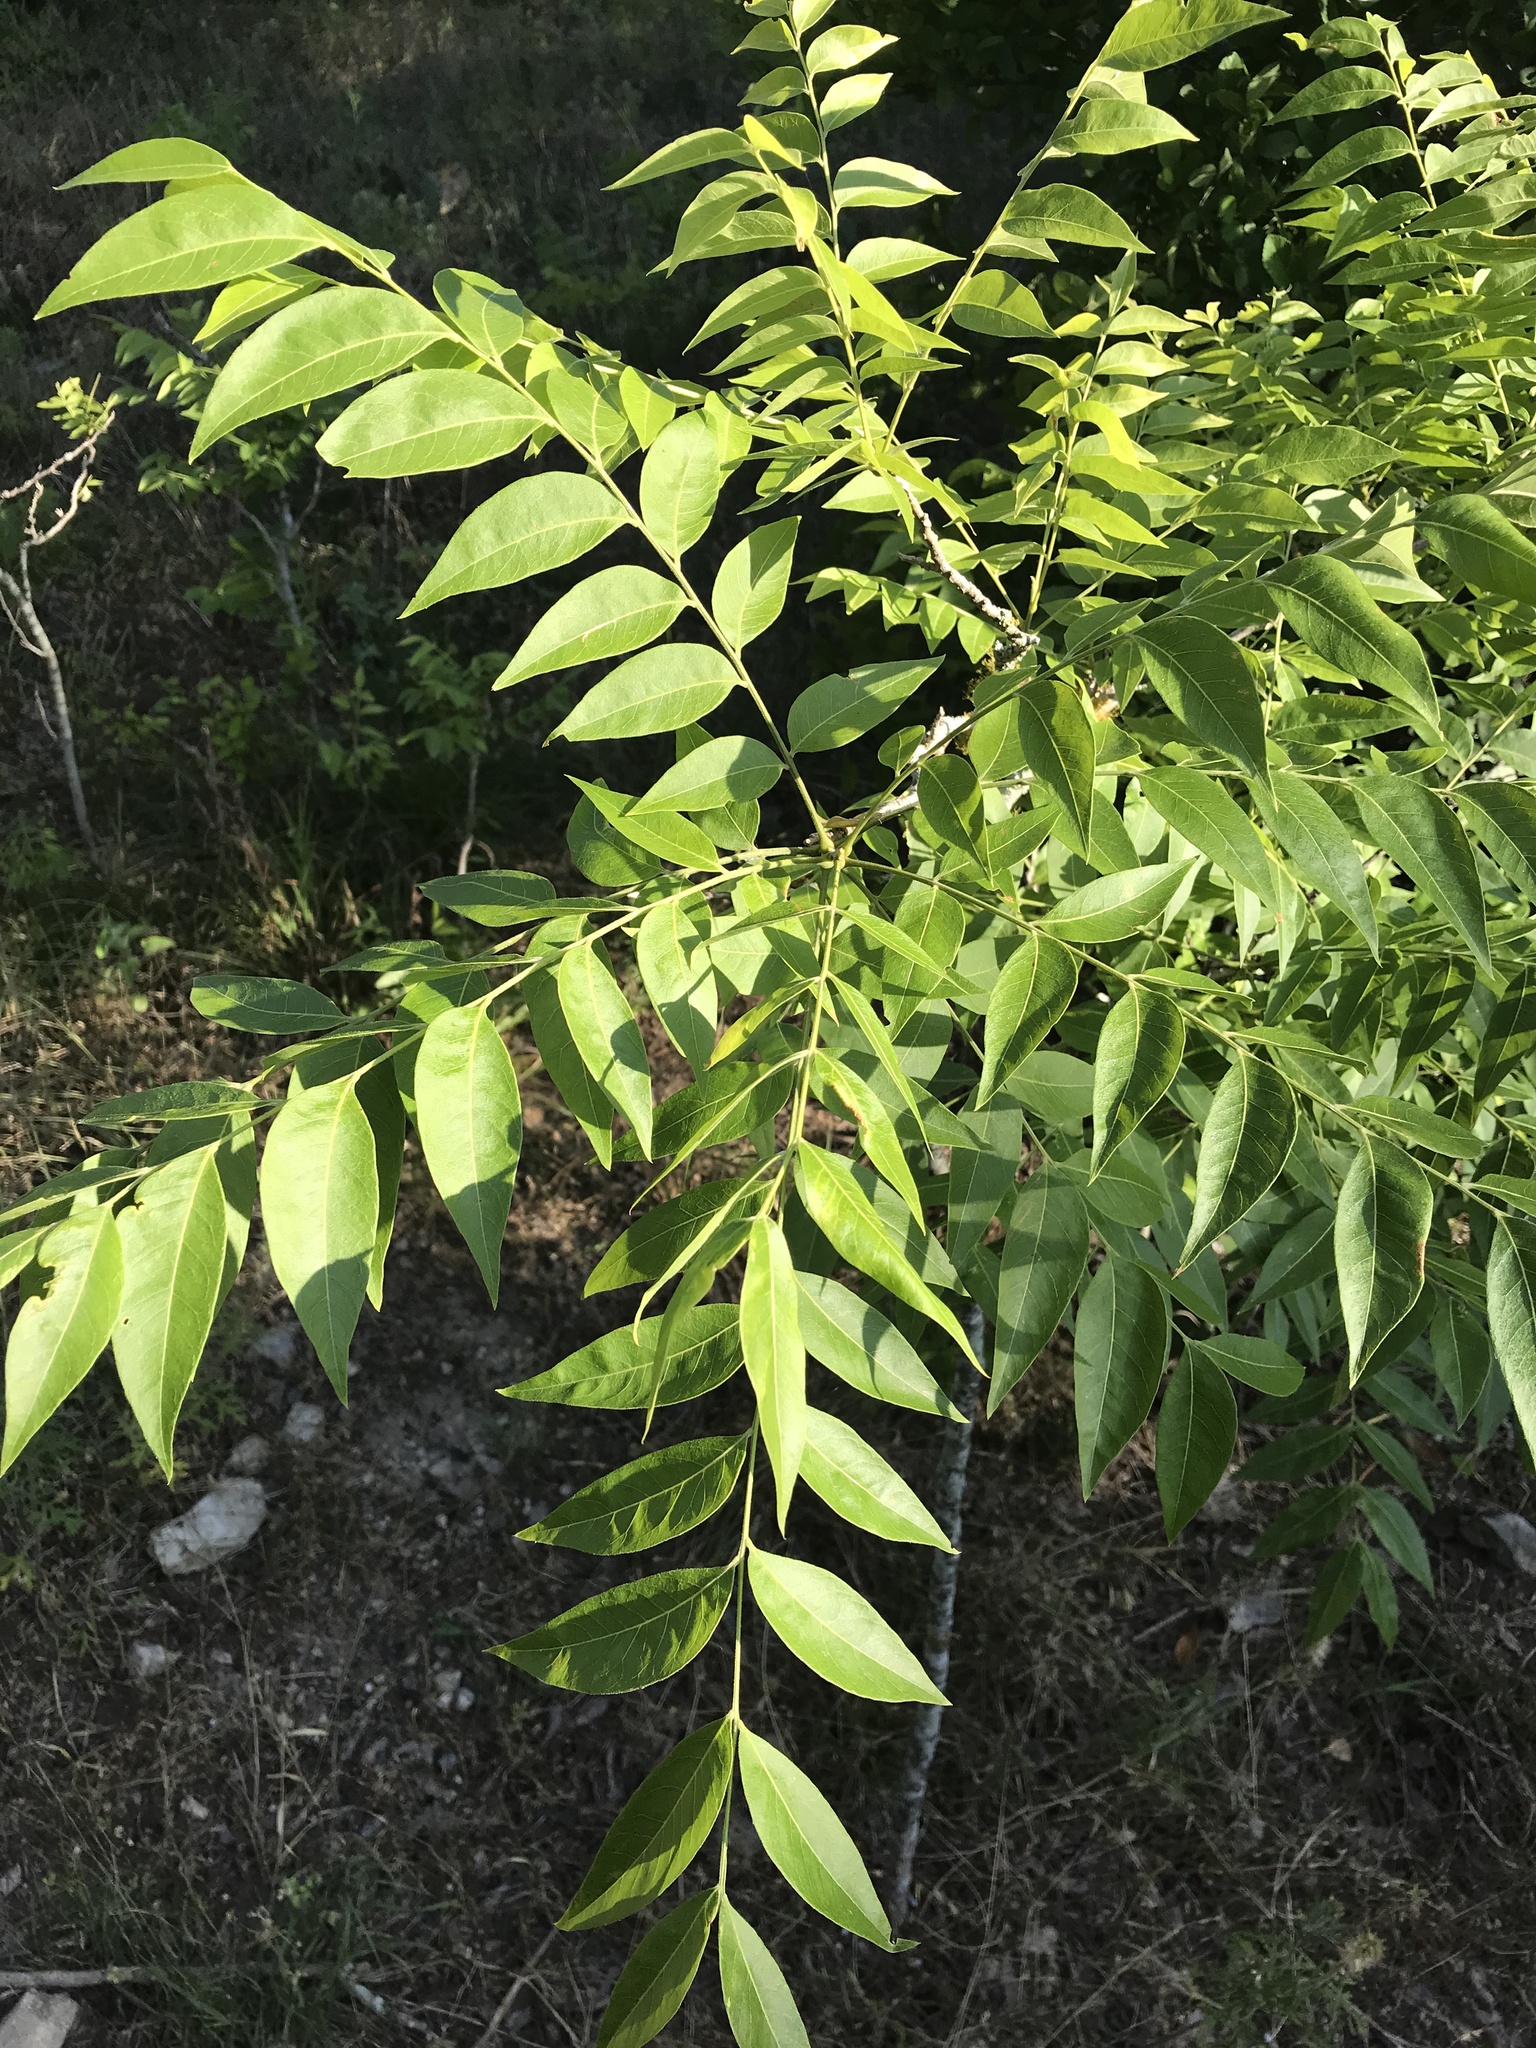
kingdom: Plantae
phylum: Tracheophyta
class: Magnoliopsida
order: Sapindales
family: Sapindaceae
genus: Sapindus
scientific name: Sapindus drummondii
